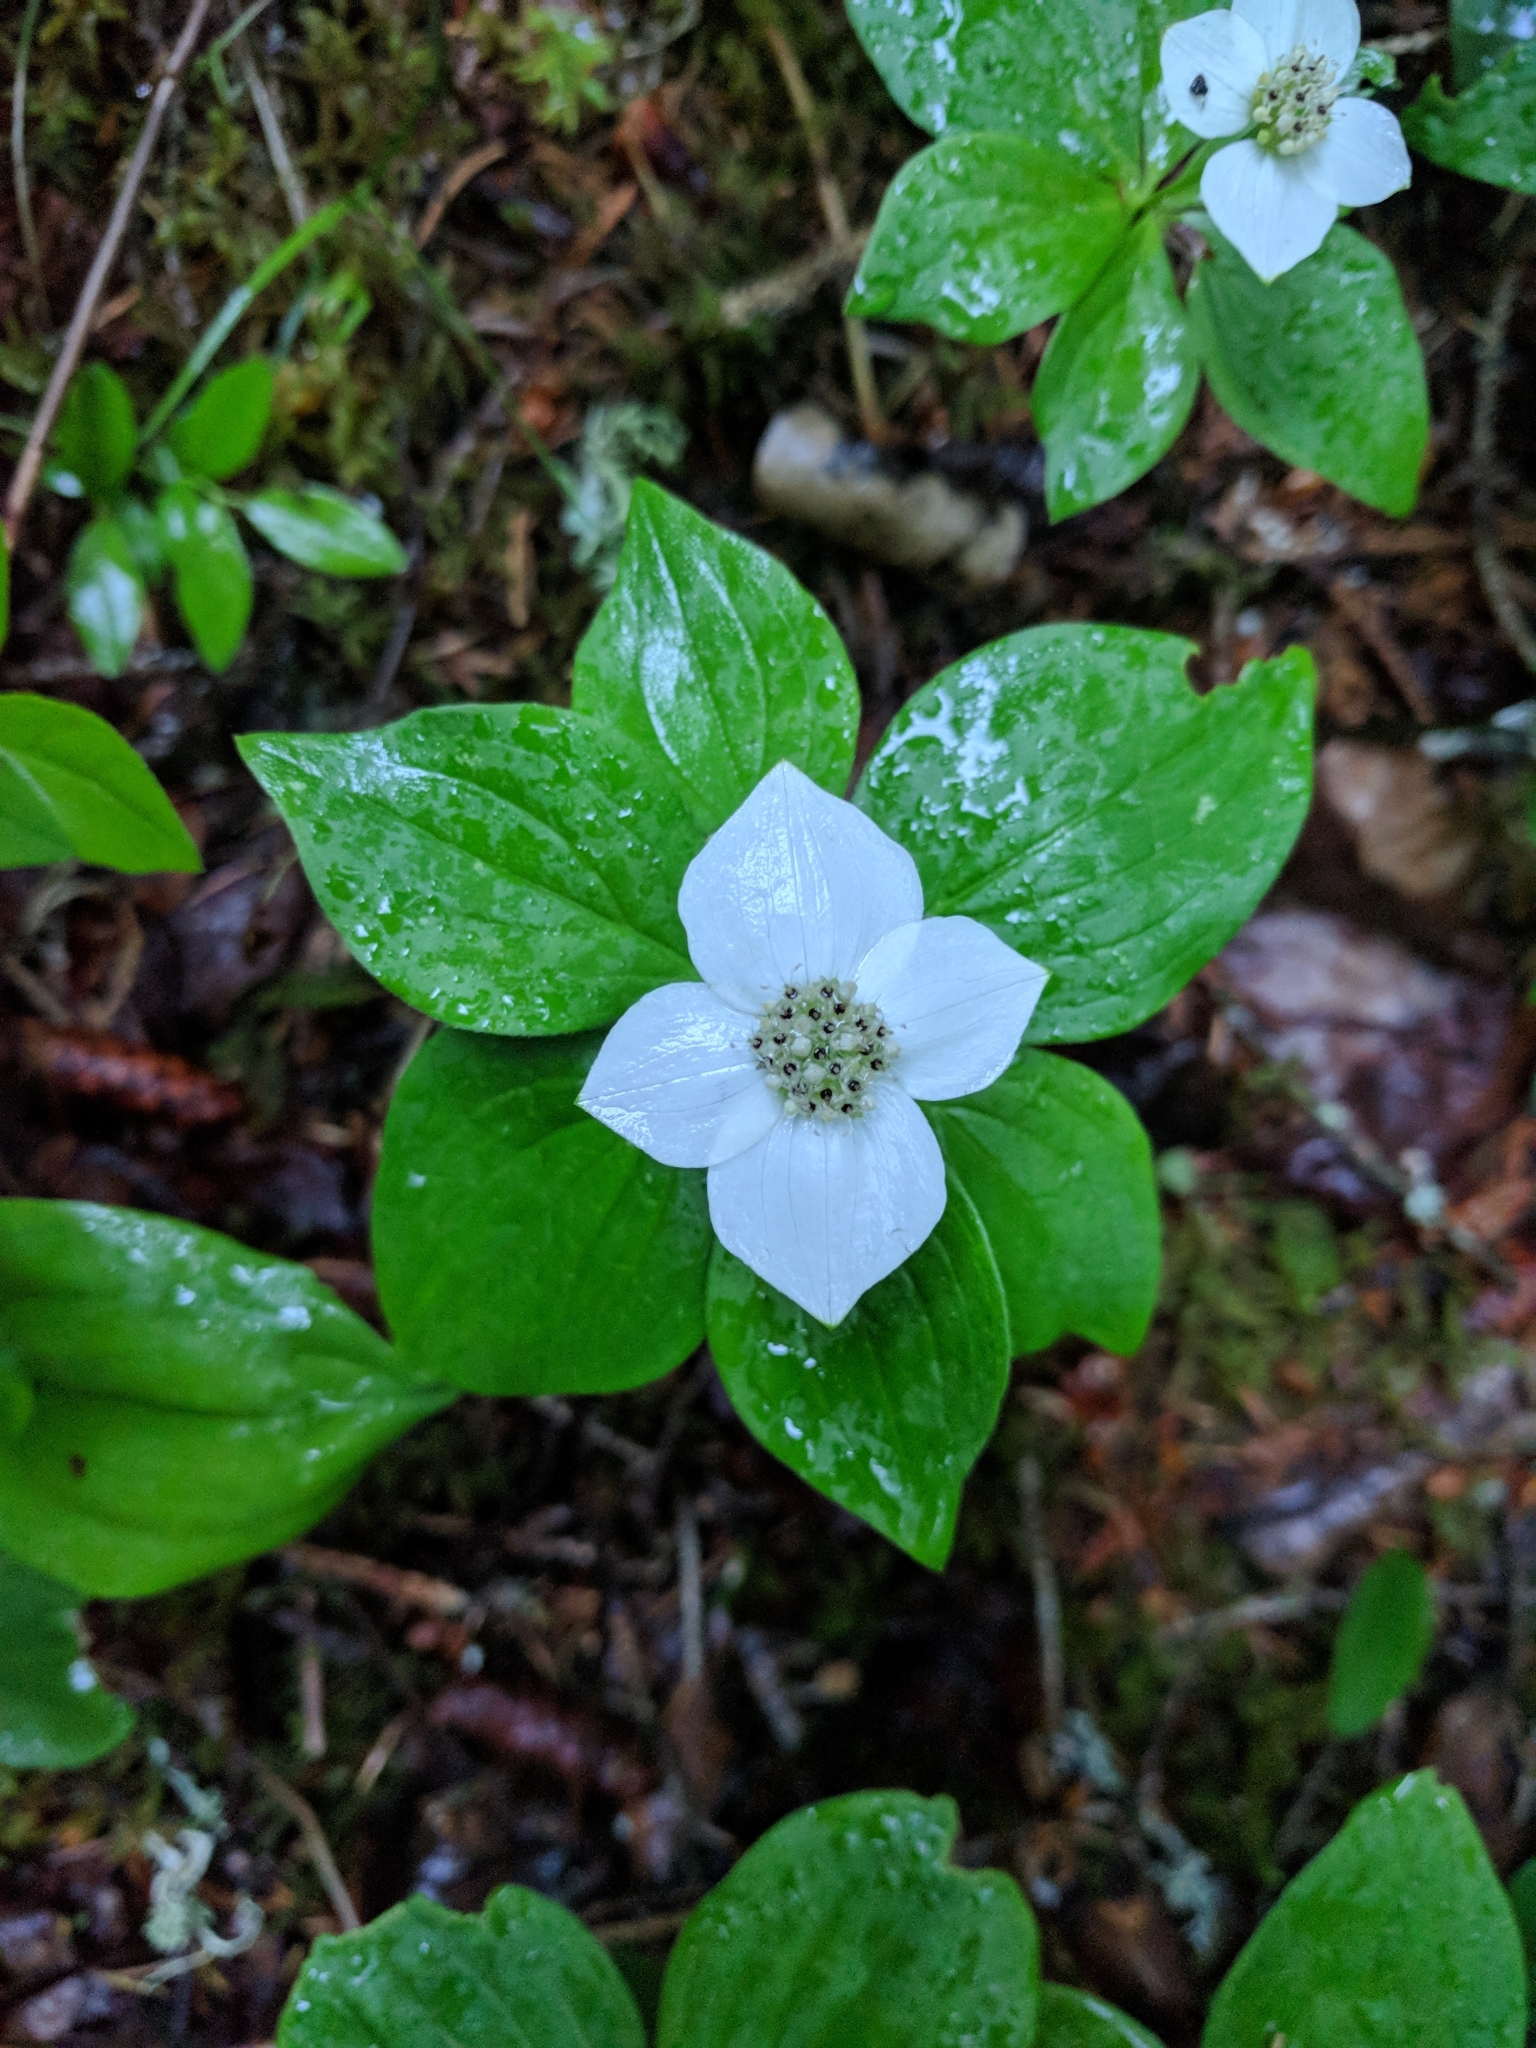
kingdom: Plantae
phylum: Tracheophyta
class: Magnoliopsida
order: Cornales
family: Cornaceae
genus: Cornus
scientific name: Cornus canadensis
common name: Creeping dogwood
